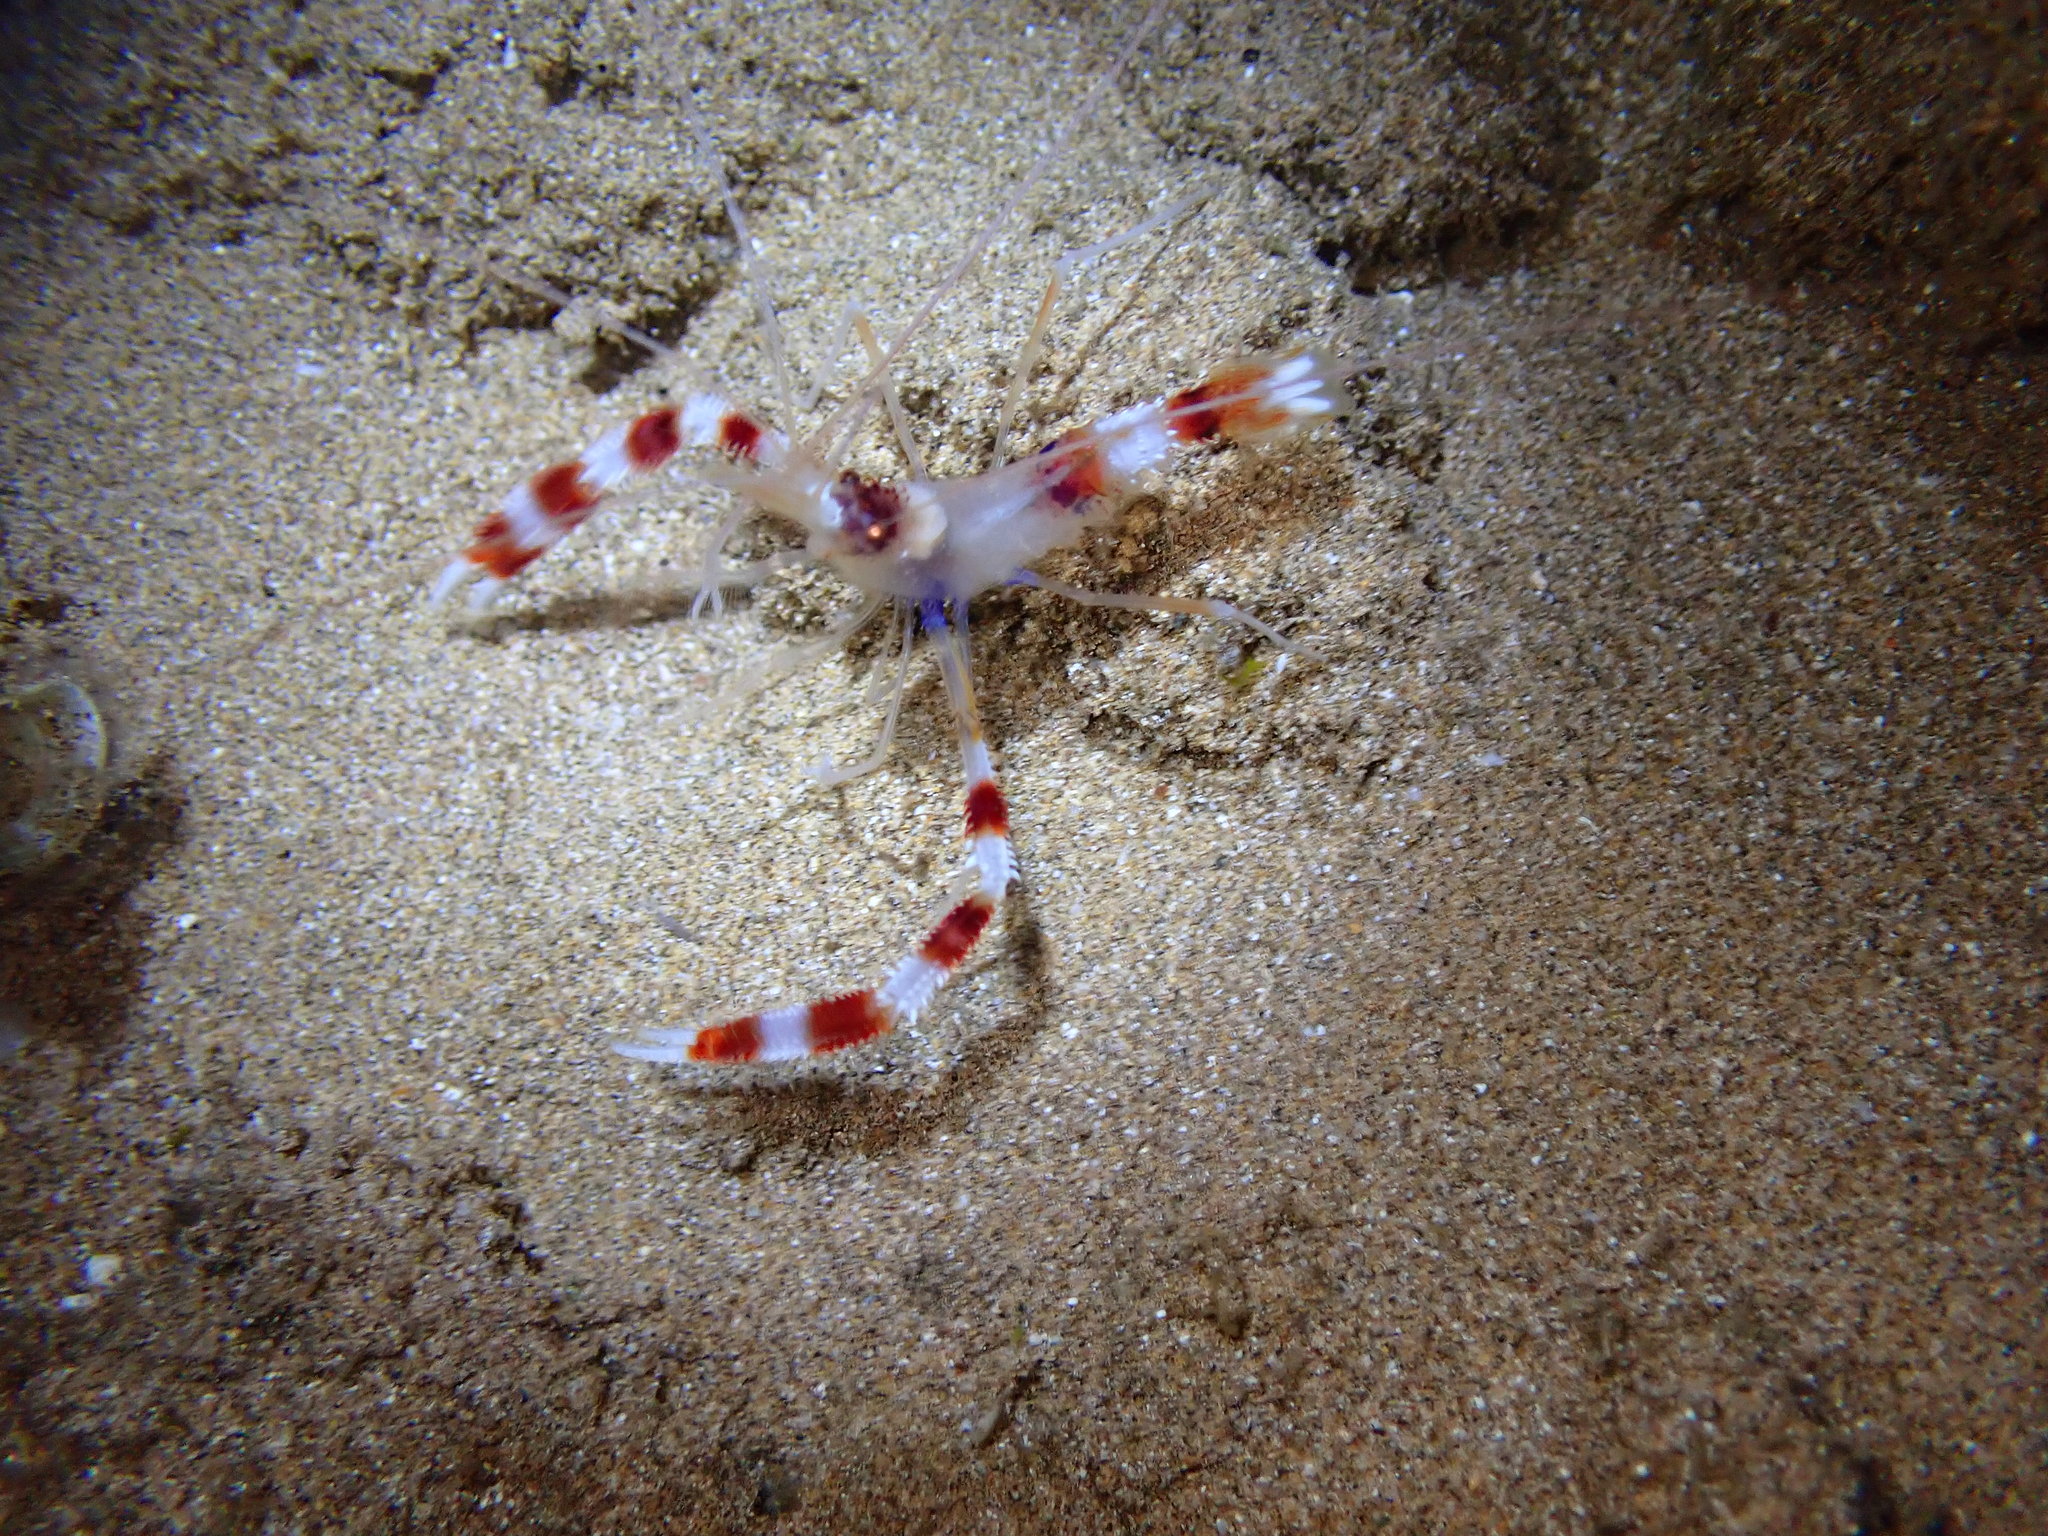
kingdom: Animalia
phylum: Arthropoda
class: Malacostraca
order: Decapoda
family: Stenopodidae
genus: Stenopus
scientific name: Stenopus hispidus
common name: Banded coral shrimp
